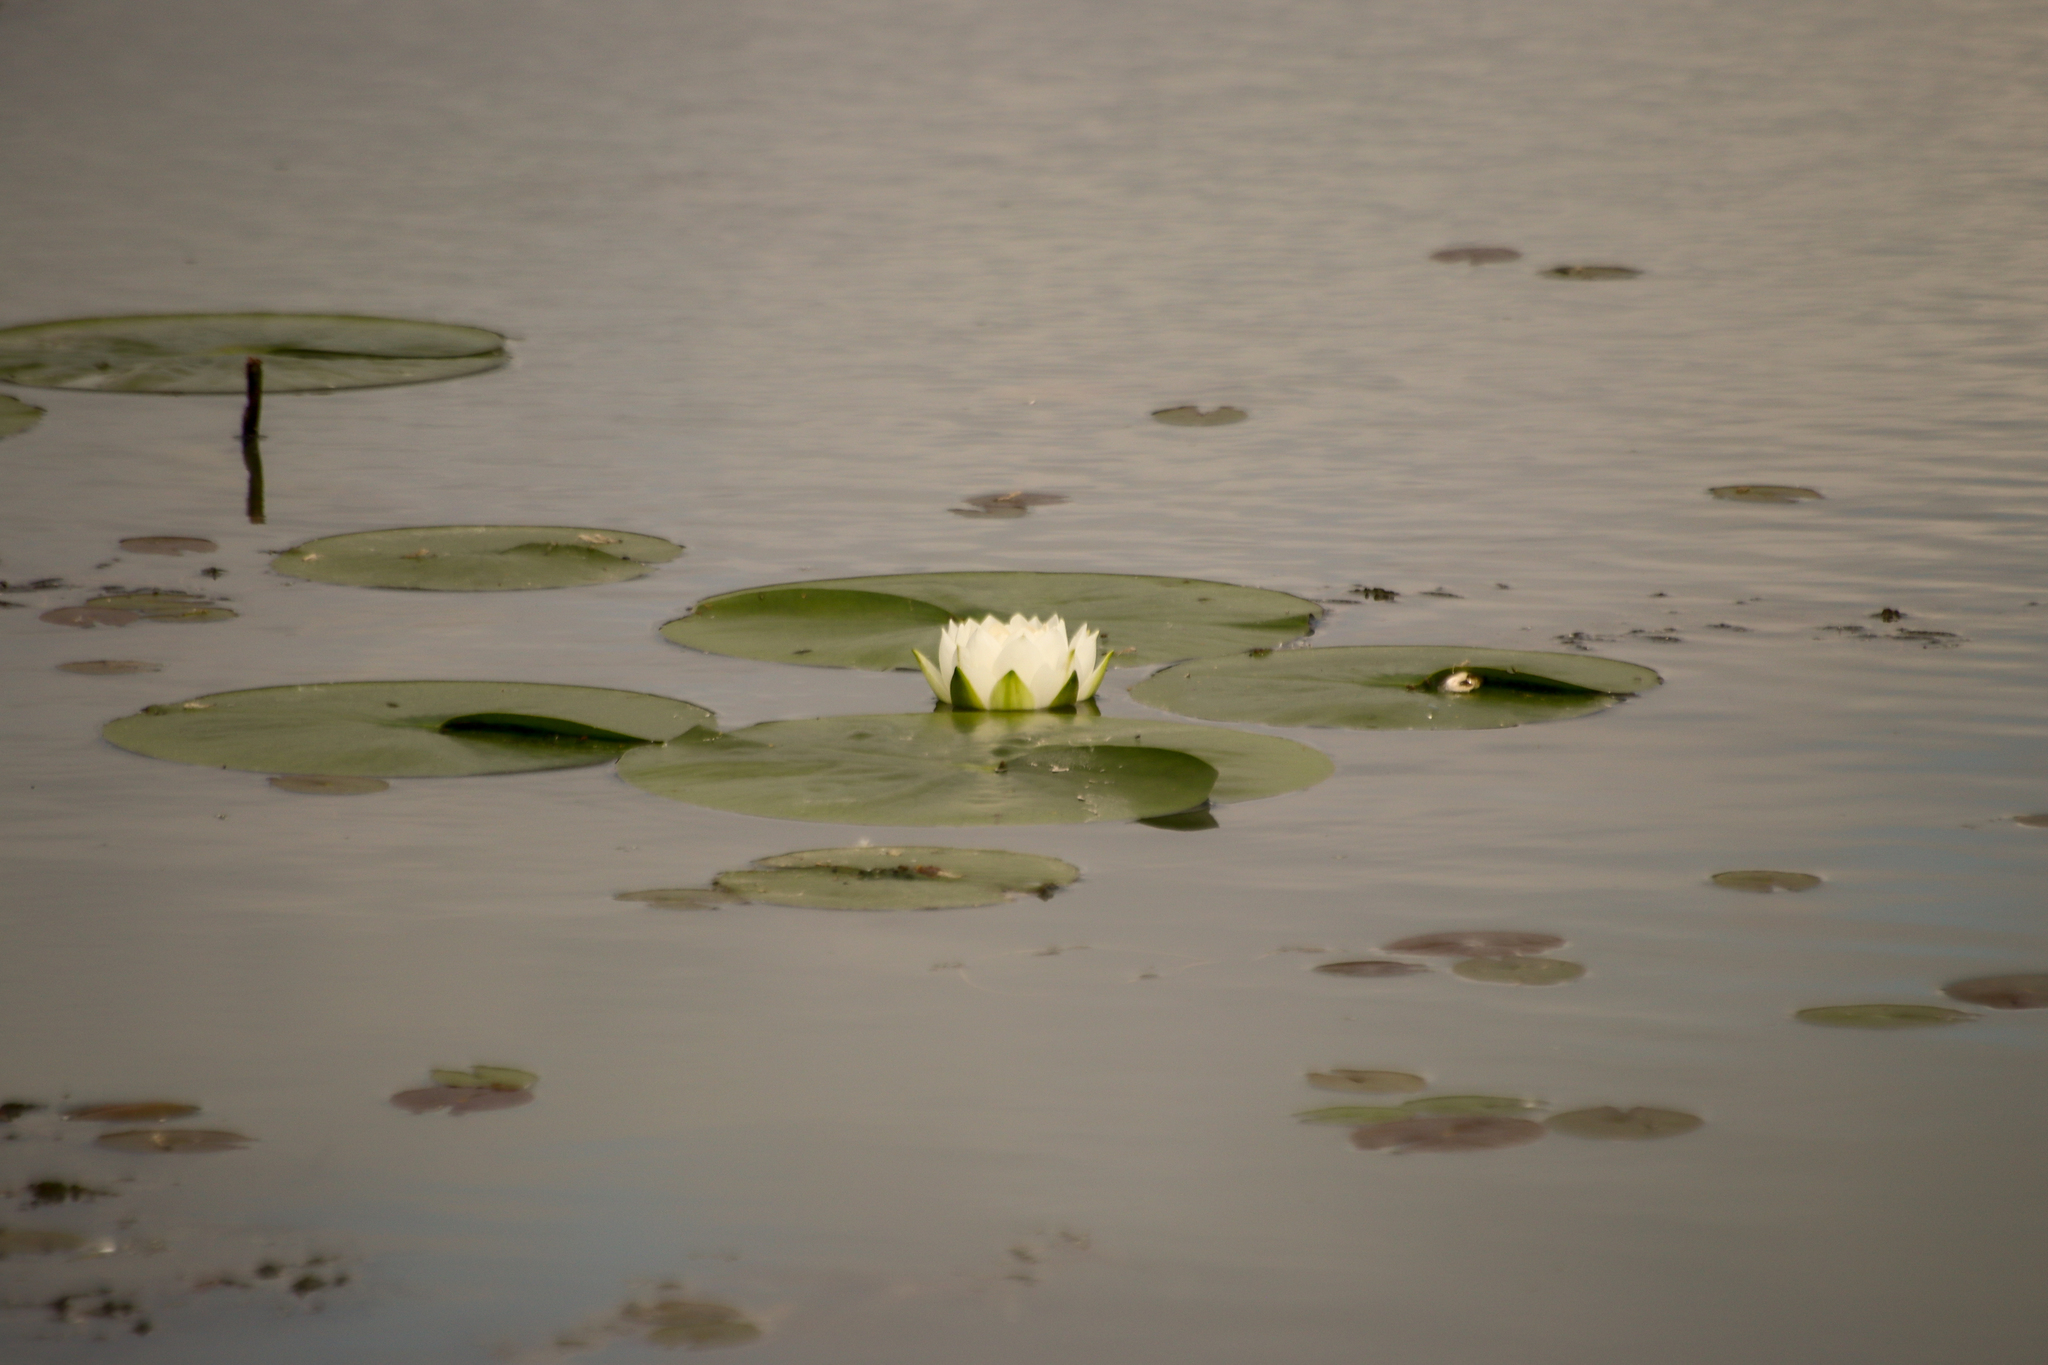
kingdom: Plantae
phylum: Tracheophyta
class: Magnoliopsida
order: Nymphaeales
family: Nymphaeaceae
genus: Nymphaea
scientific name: Nymphaea odorata
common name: Fragrant water-lily
